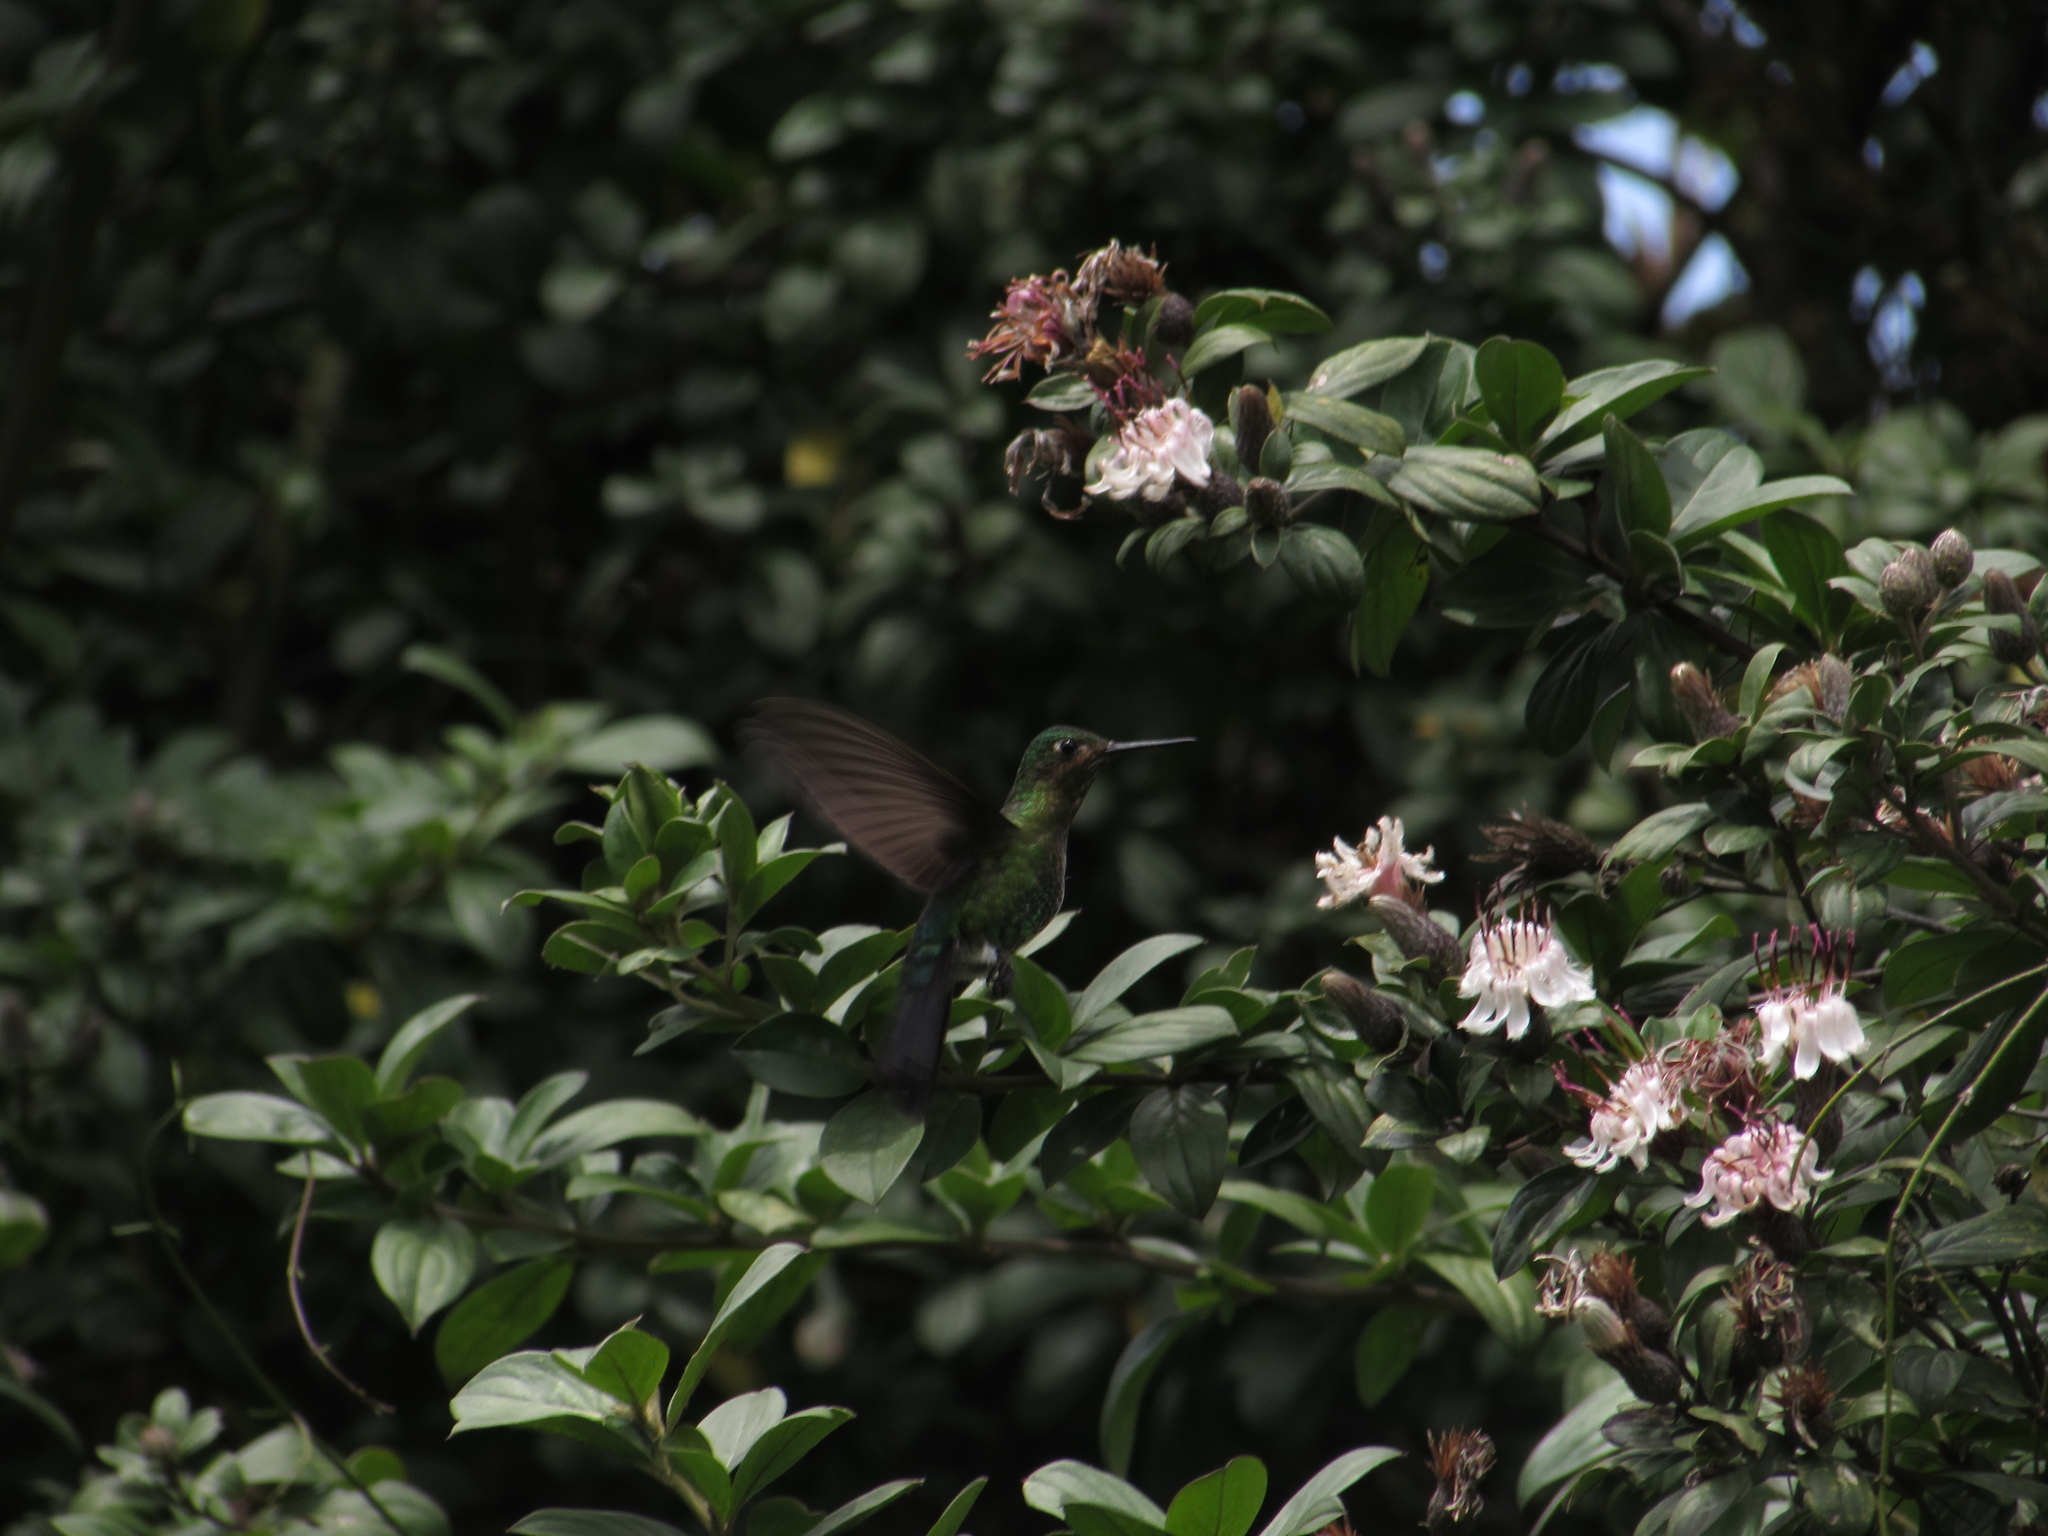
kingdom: Animalia
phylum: Chordata
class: Aves
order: Apodiformes
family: Trochilidae
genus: Eriocnemis
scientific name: Eriocnemis vestita
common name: Glowing puffleg
